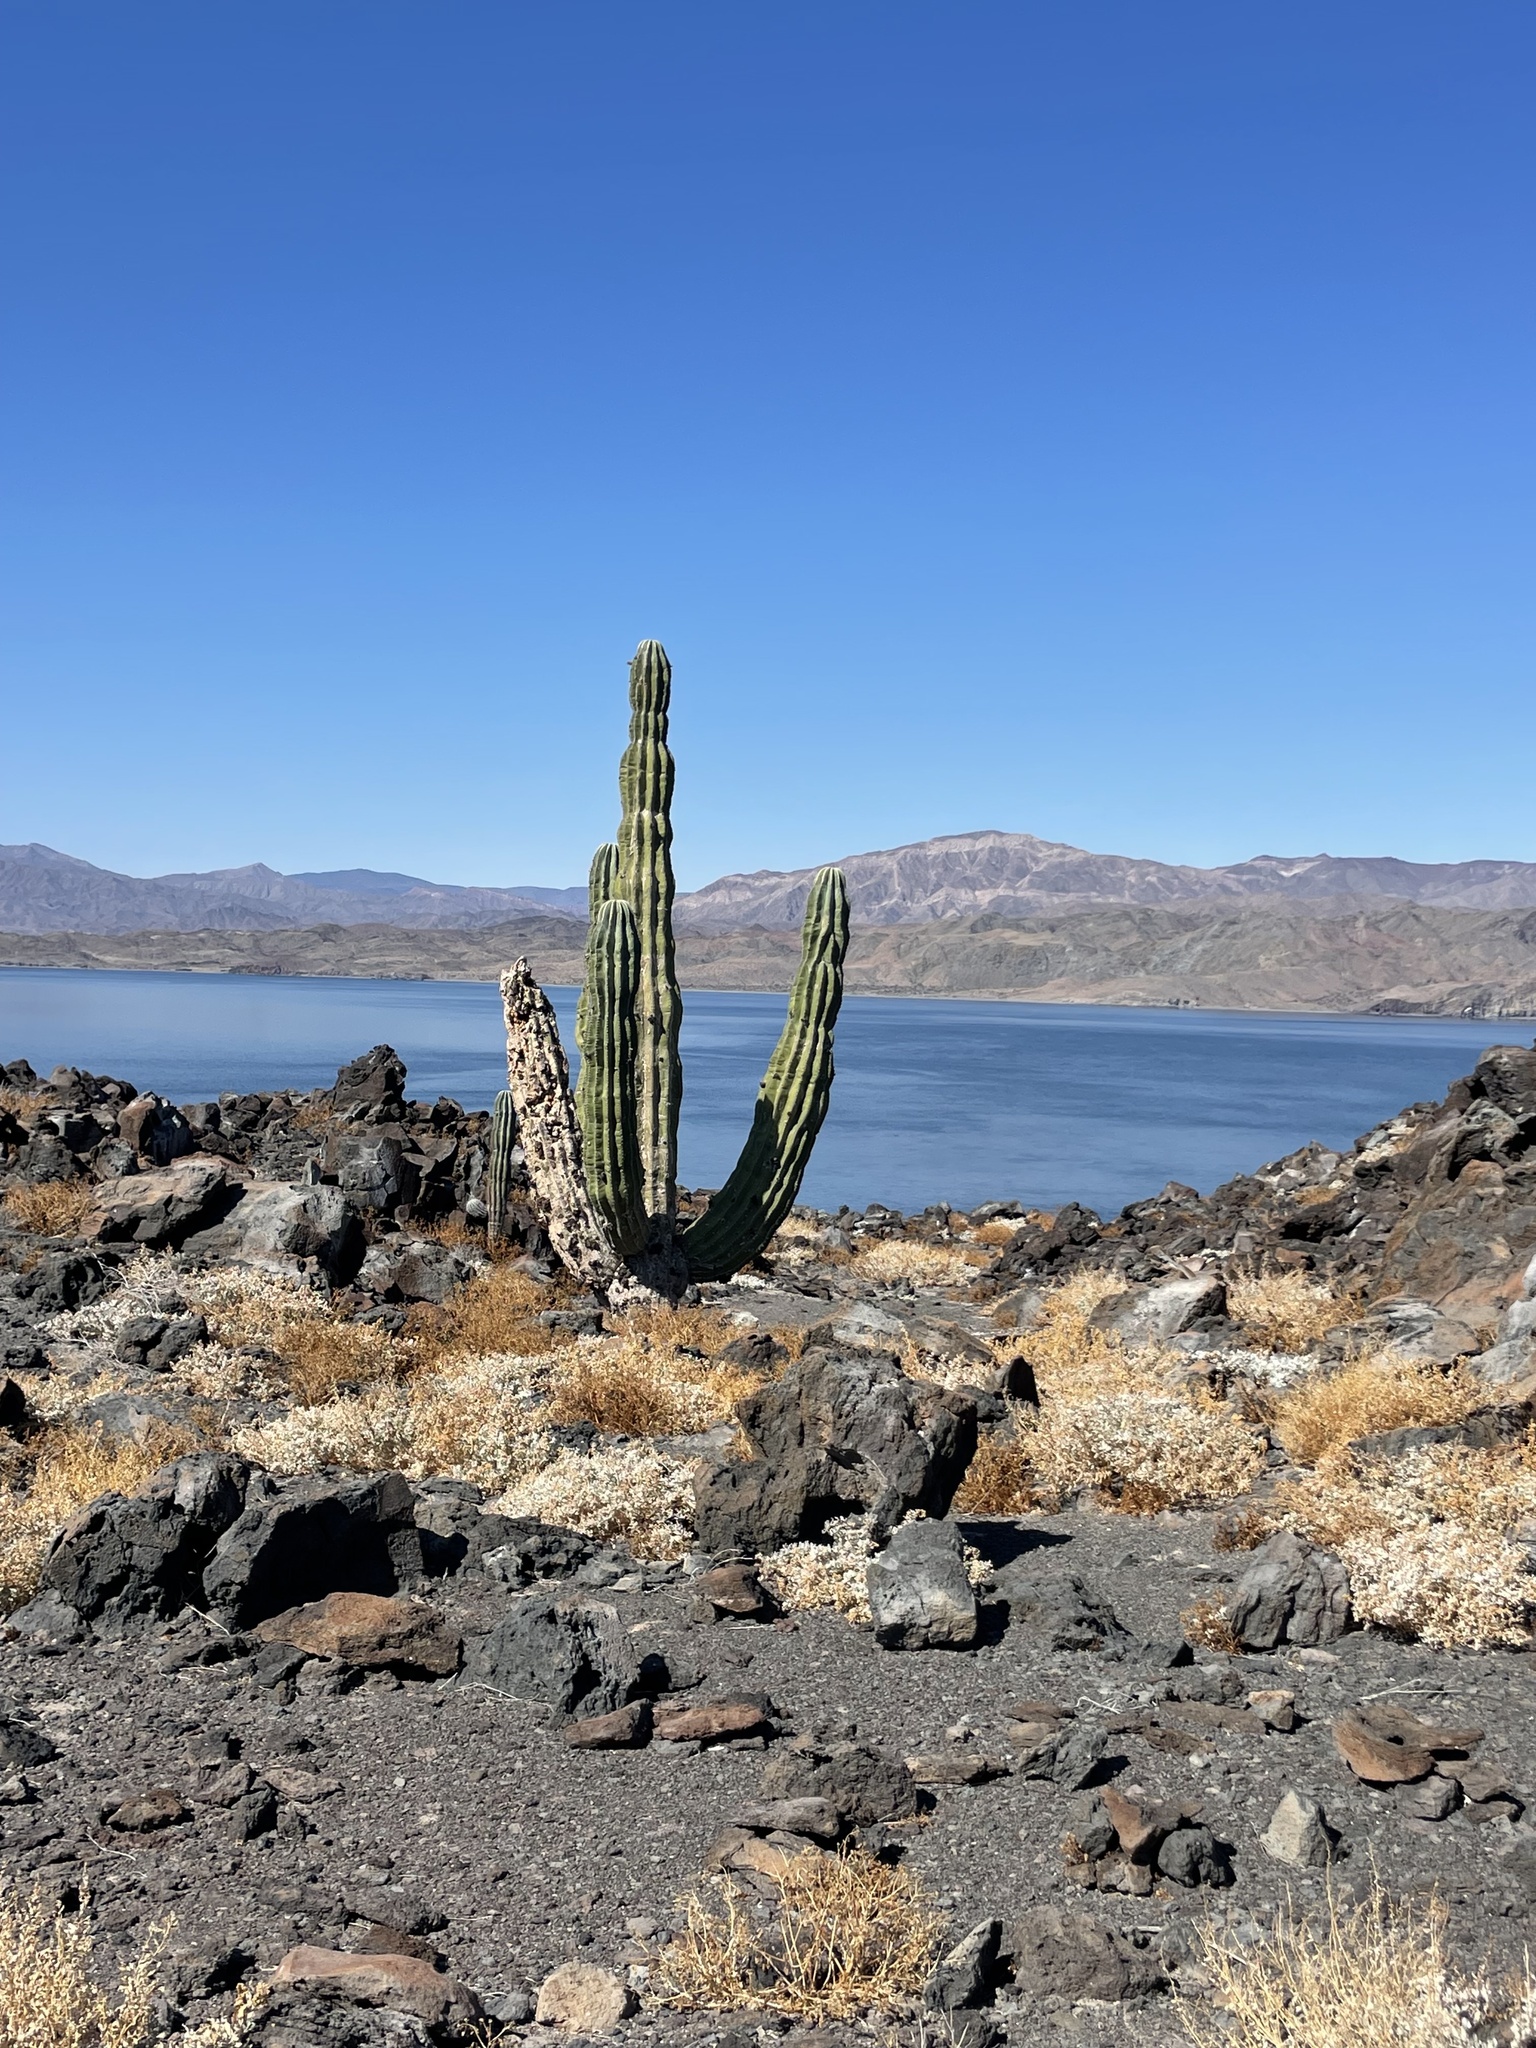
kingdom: Plantae
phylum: Tracheophyta
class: Magnoliopsida
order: Caryophyllales
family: Cactaceae
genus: Pachycereus
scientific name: Pachycereus pringlei
